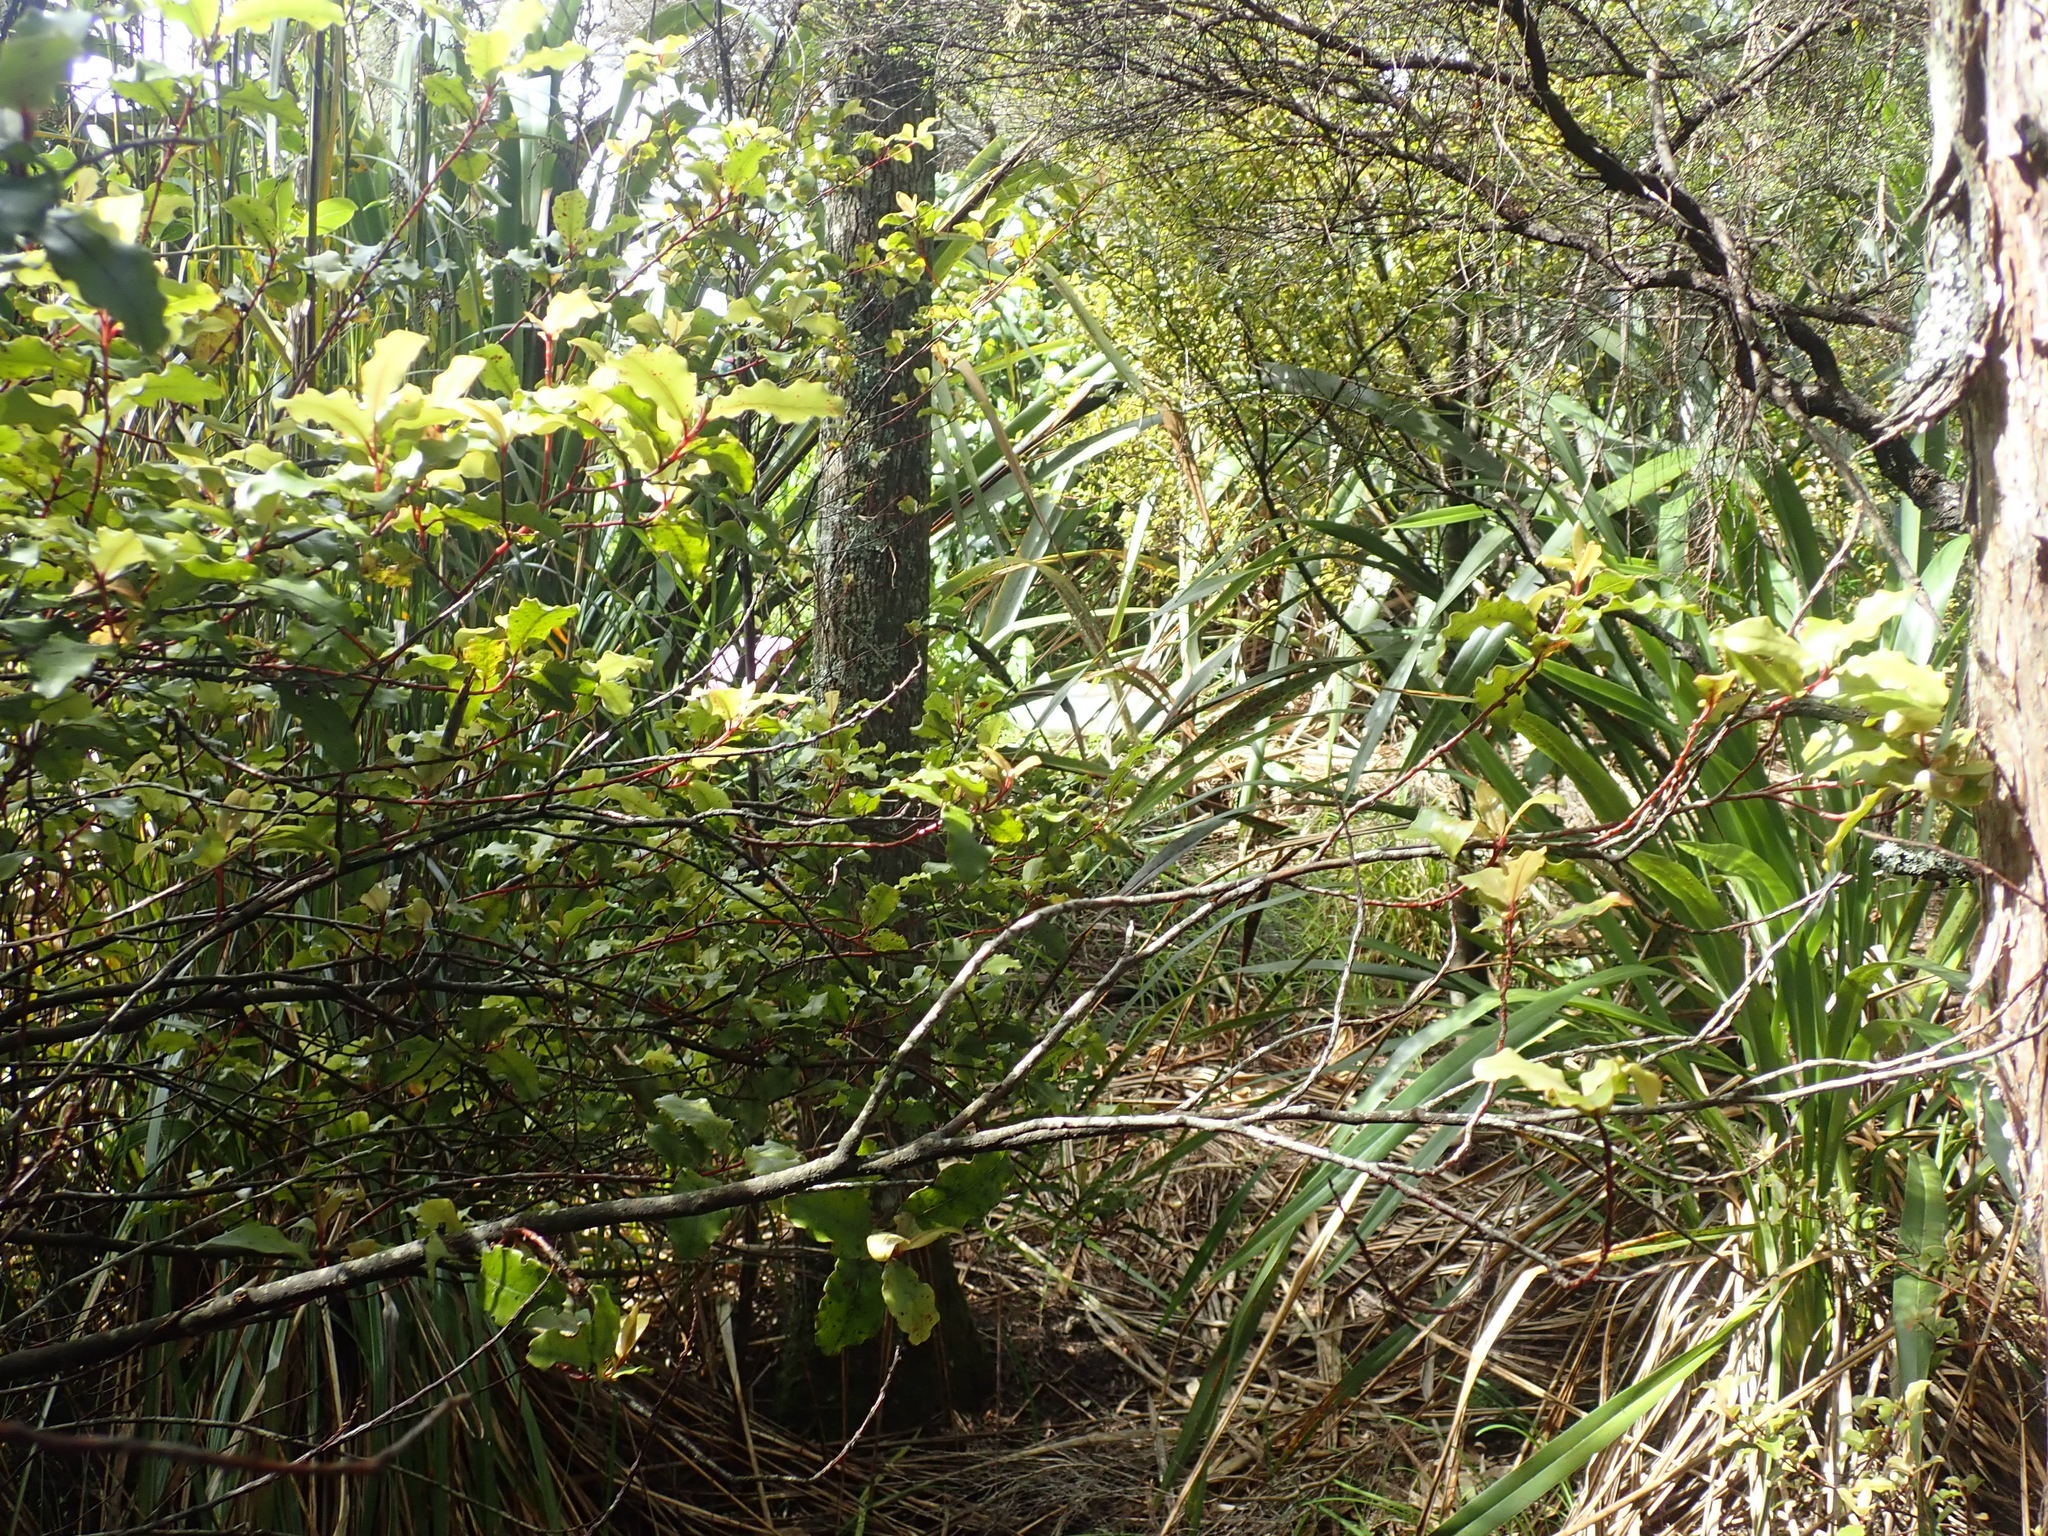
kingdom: Plantae
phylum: Tracheophyta
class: Magnoliopsida
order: Ericales
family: Primulaceae
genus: Myrsine
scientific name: Myrsine australis
